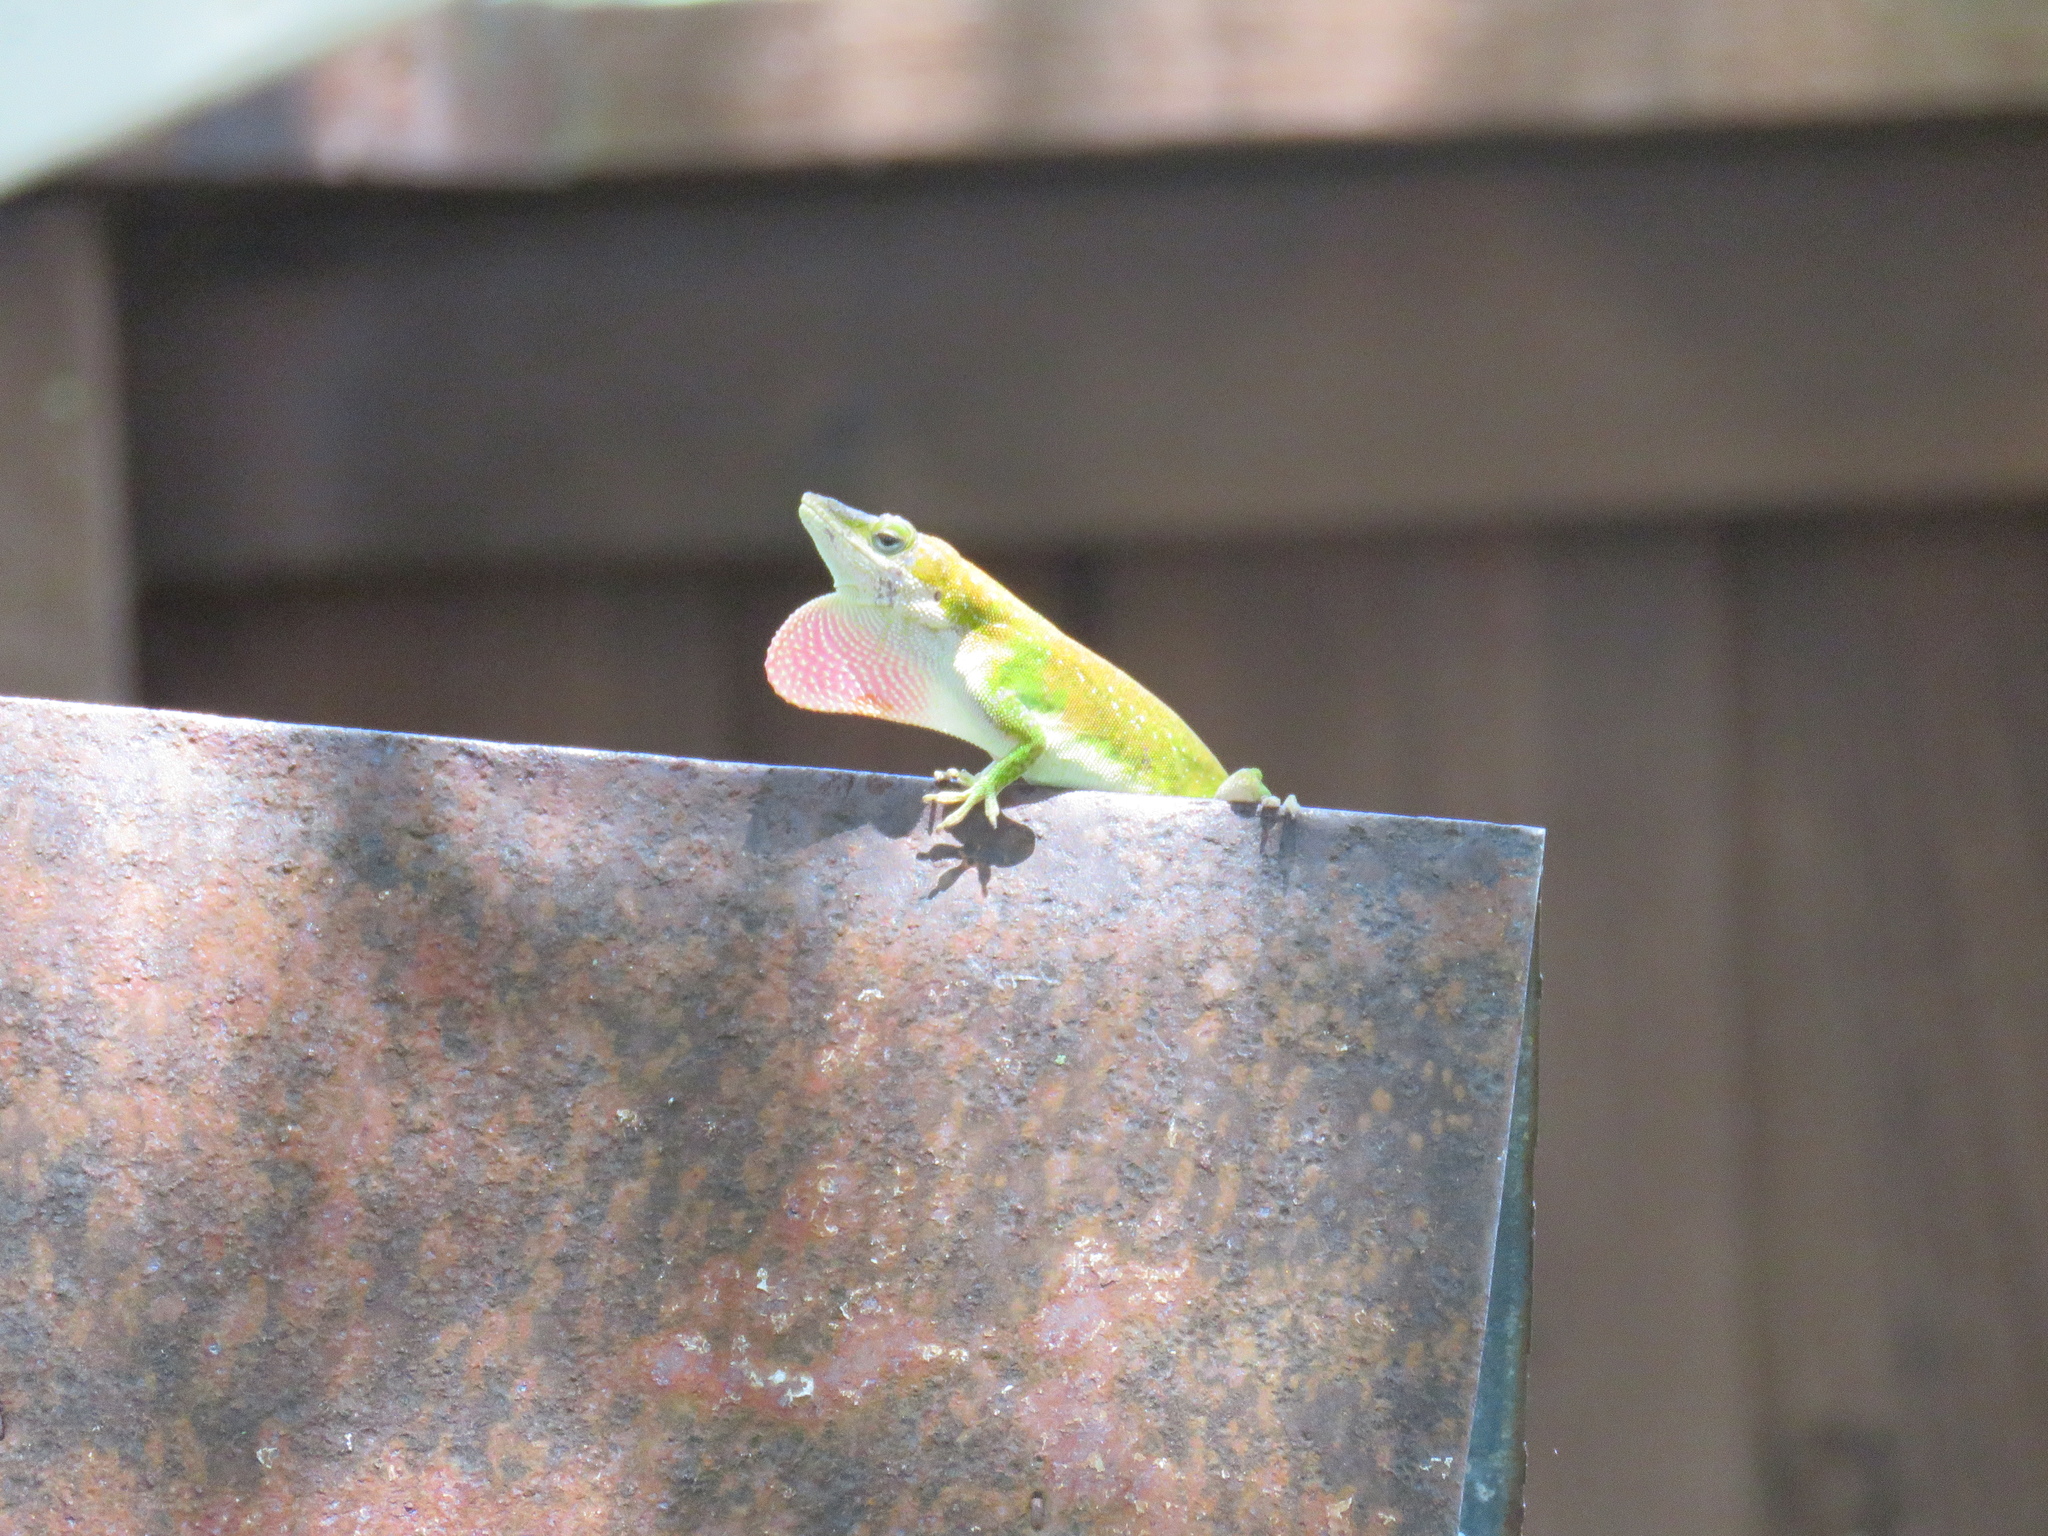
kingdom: Animalia
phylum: Chordata
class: Squamata
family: Dactyloidae
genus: Anolis
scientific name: Anolis carolinensis
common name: Green anole
